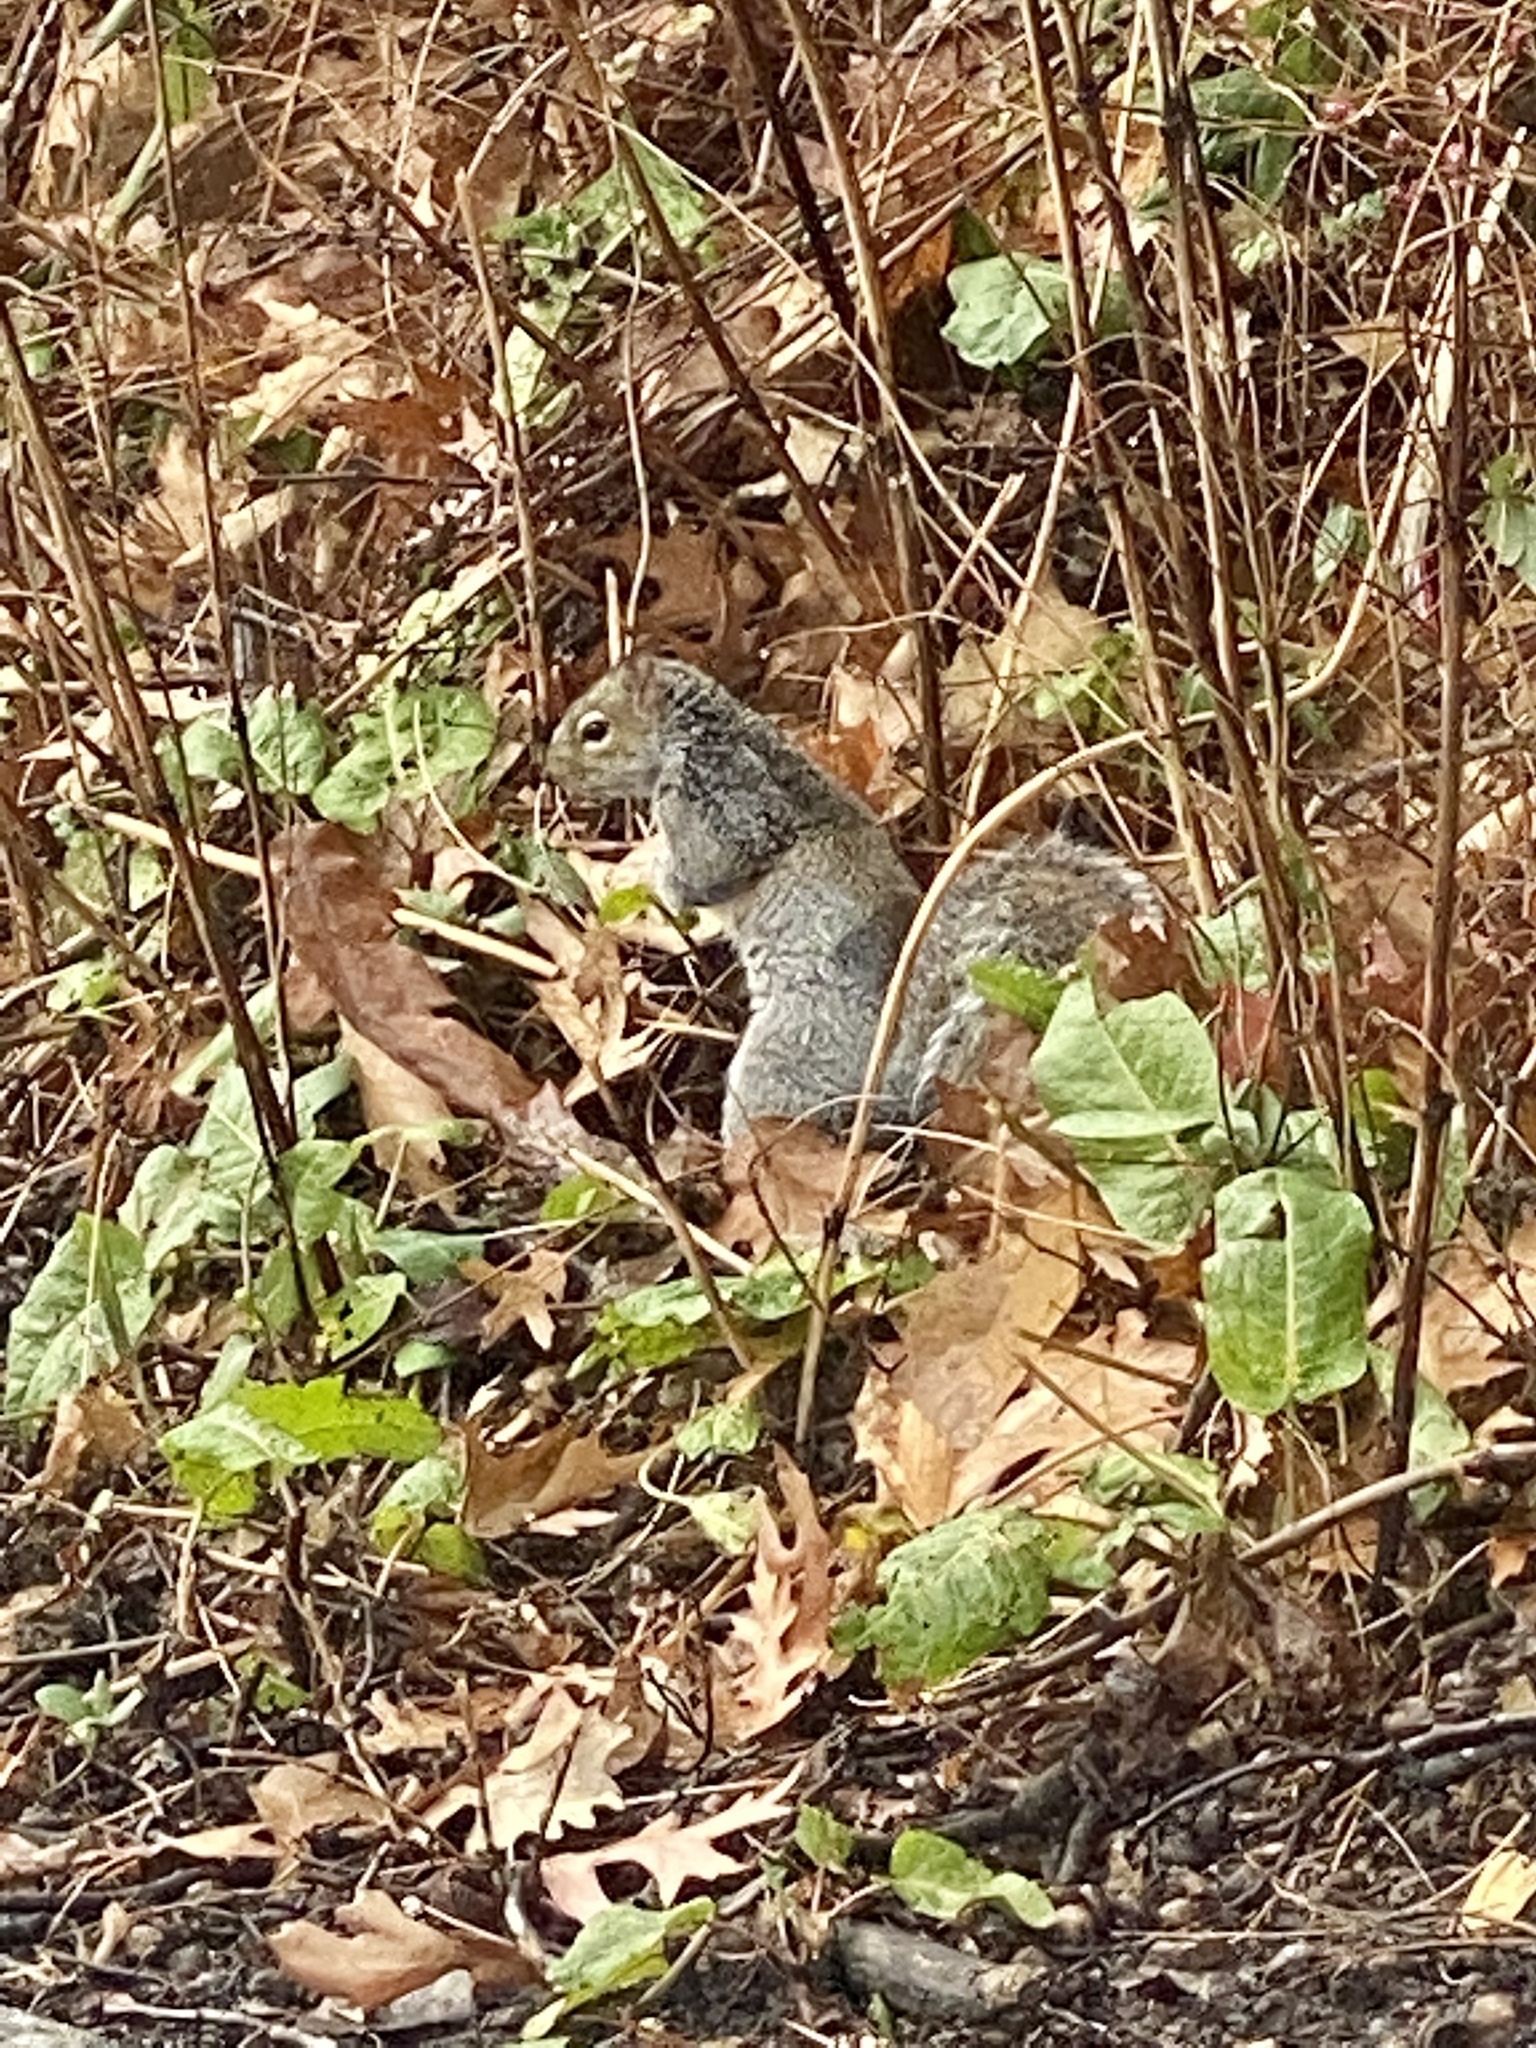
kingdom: Animalia
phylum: Chordata
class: Mammalia
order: Rodentia
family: Sciuridae
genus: Sciurus
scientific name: Sciurus carolinensis
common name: Eastern gray squirrel
